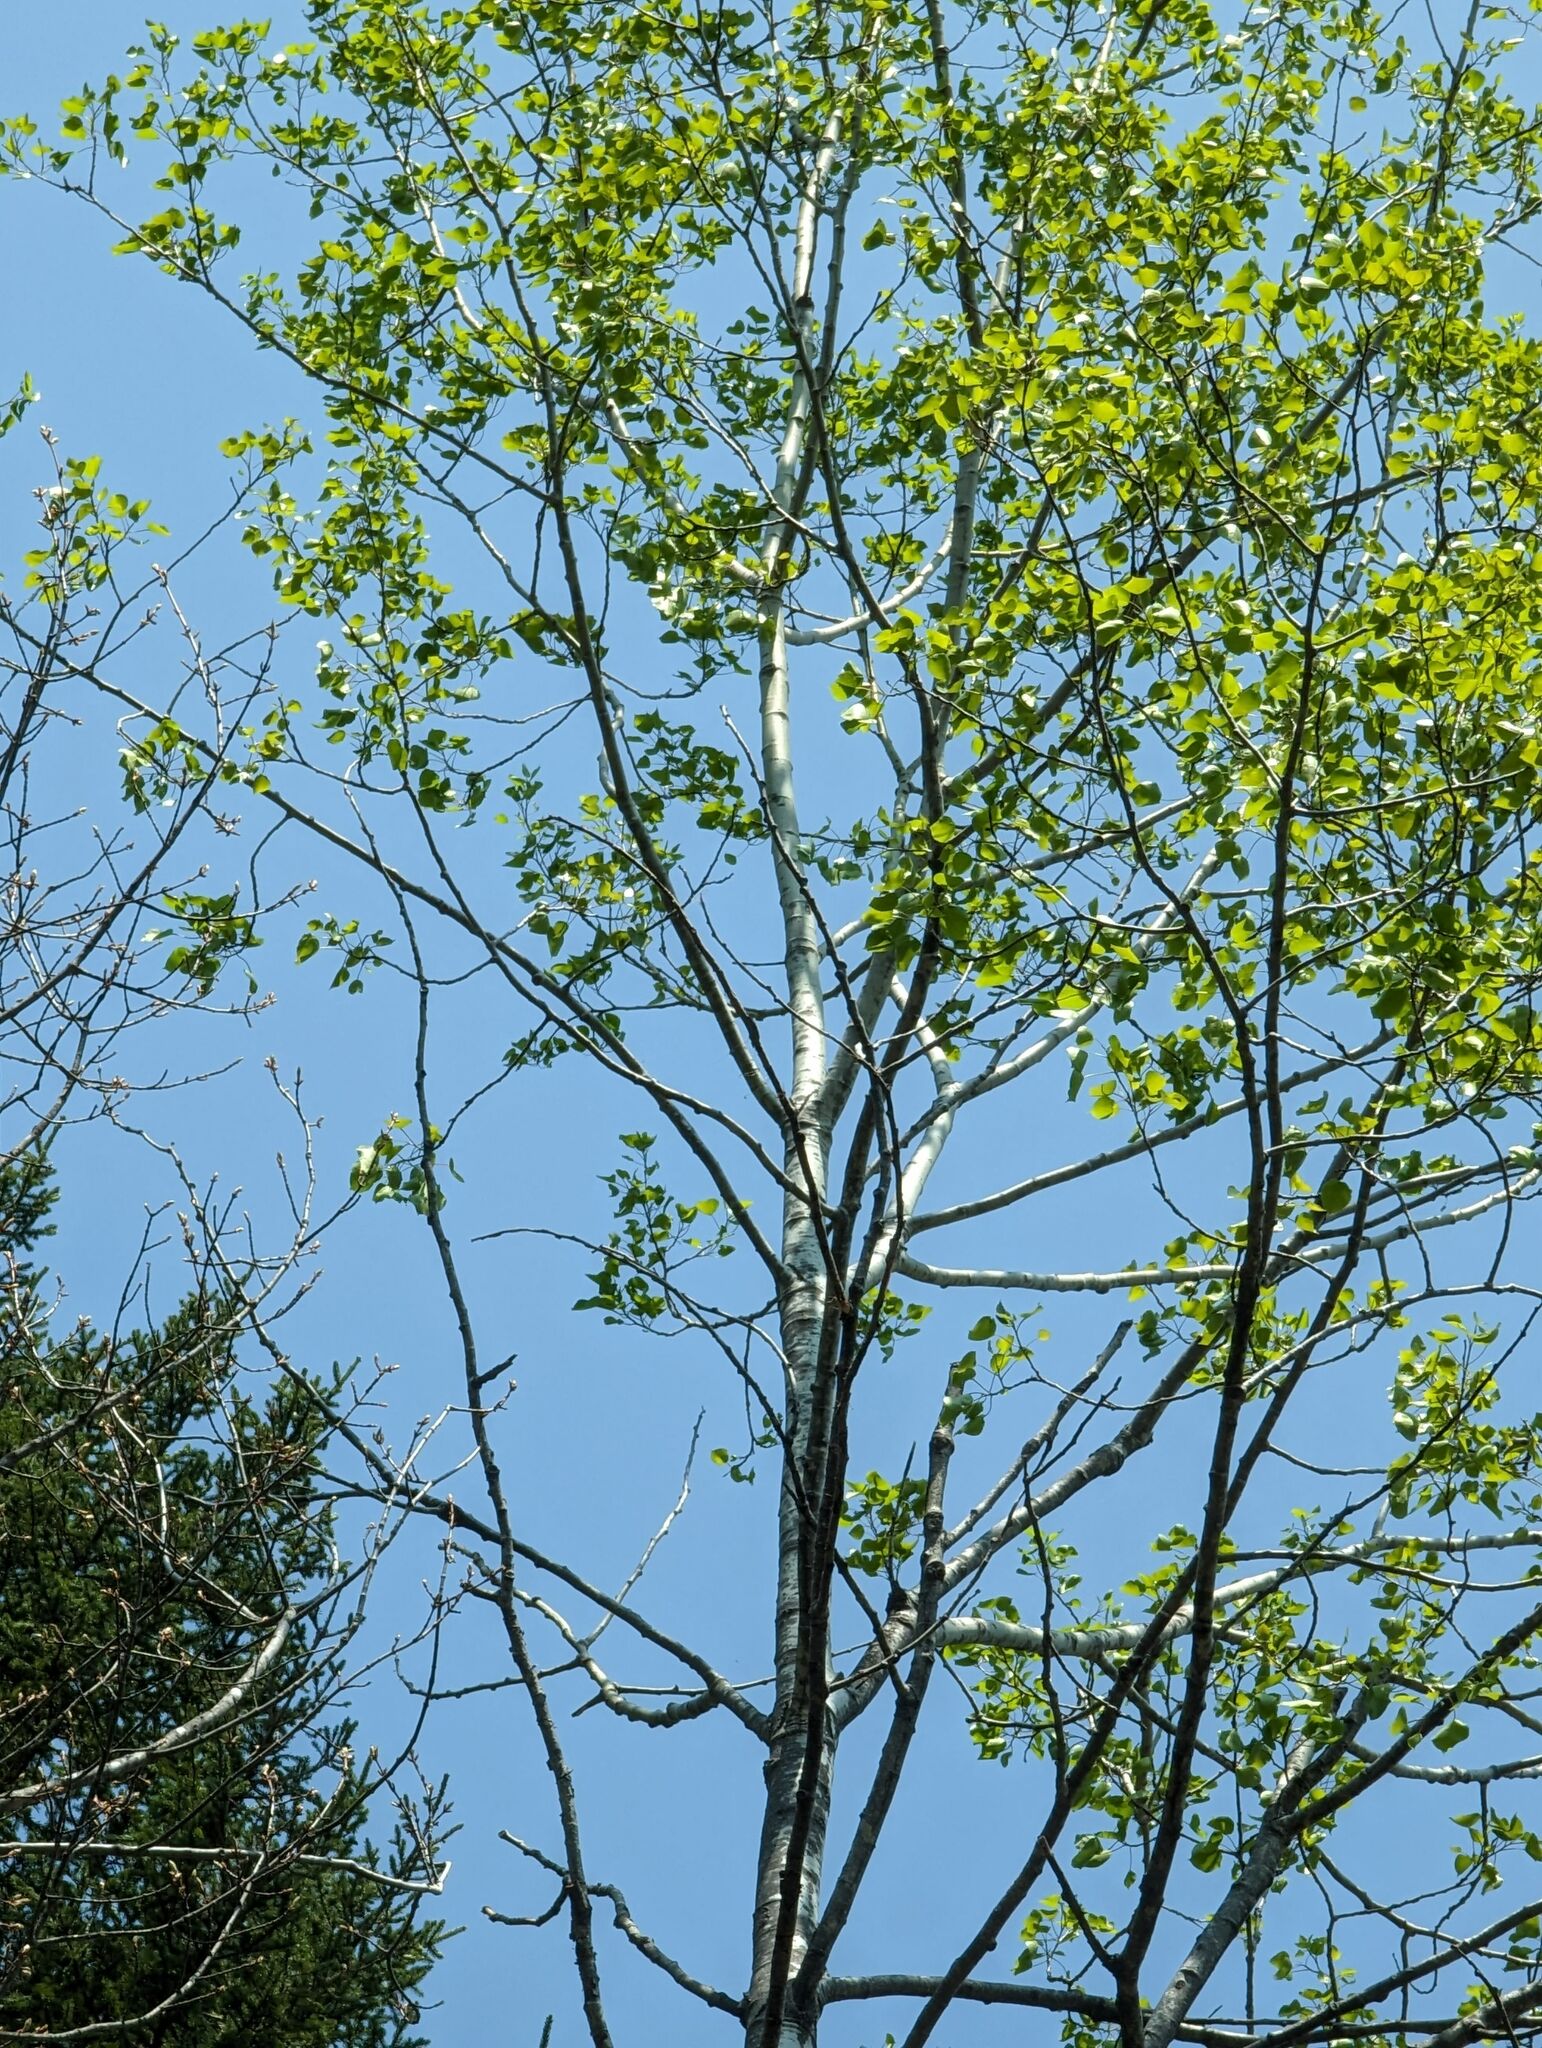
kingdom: Plantae
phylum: Tracheophyta
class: Magnoliopsida
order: Malpighiales
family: Salicaceae
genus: Populus
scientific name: Populus tremuloides
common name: Quaking aspen
